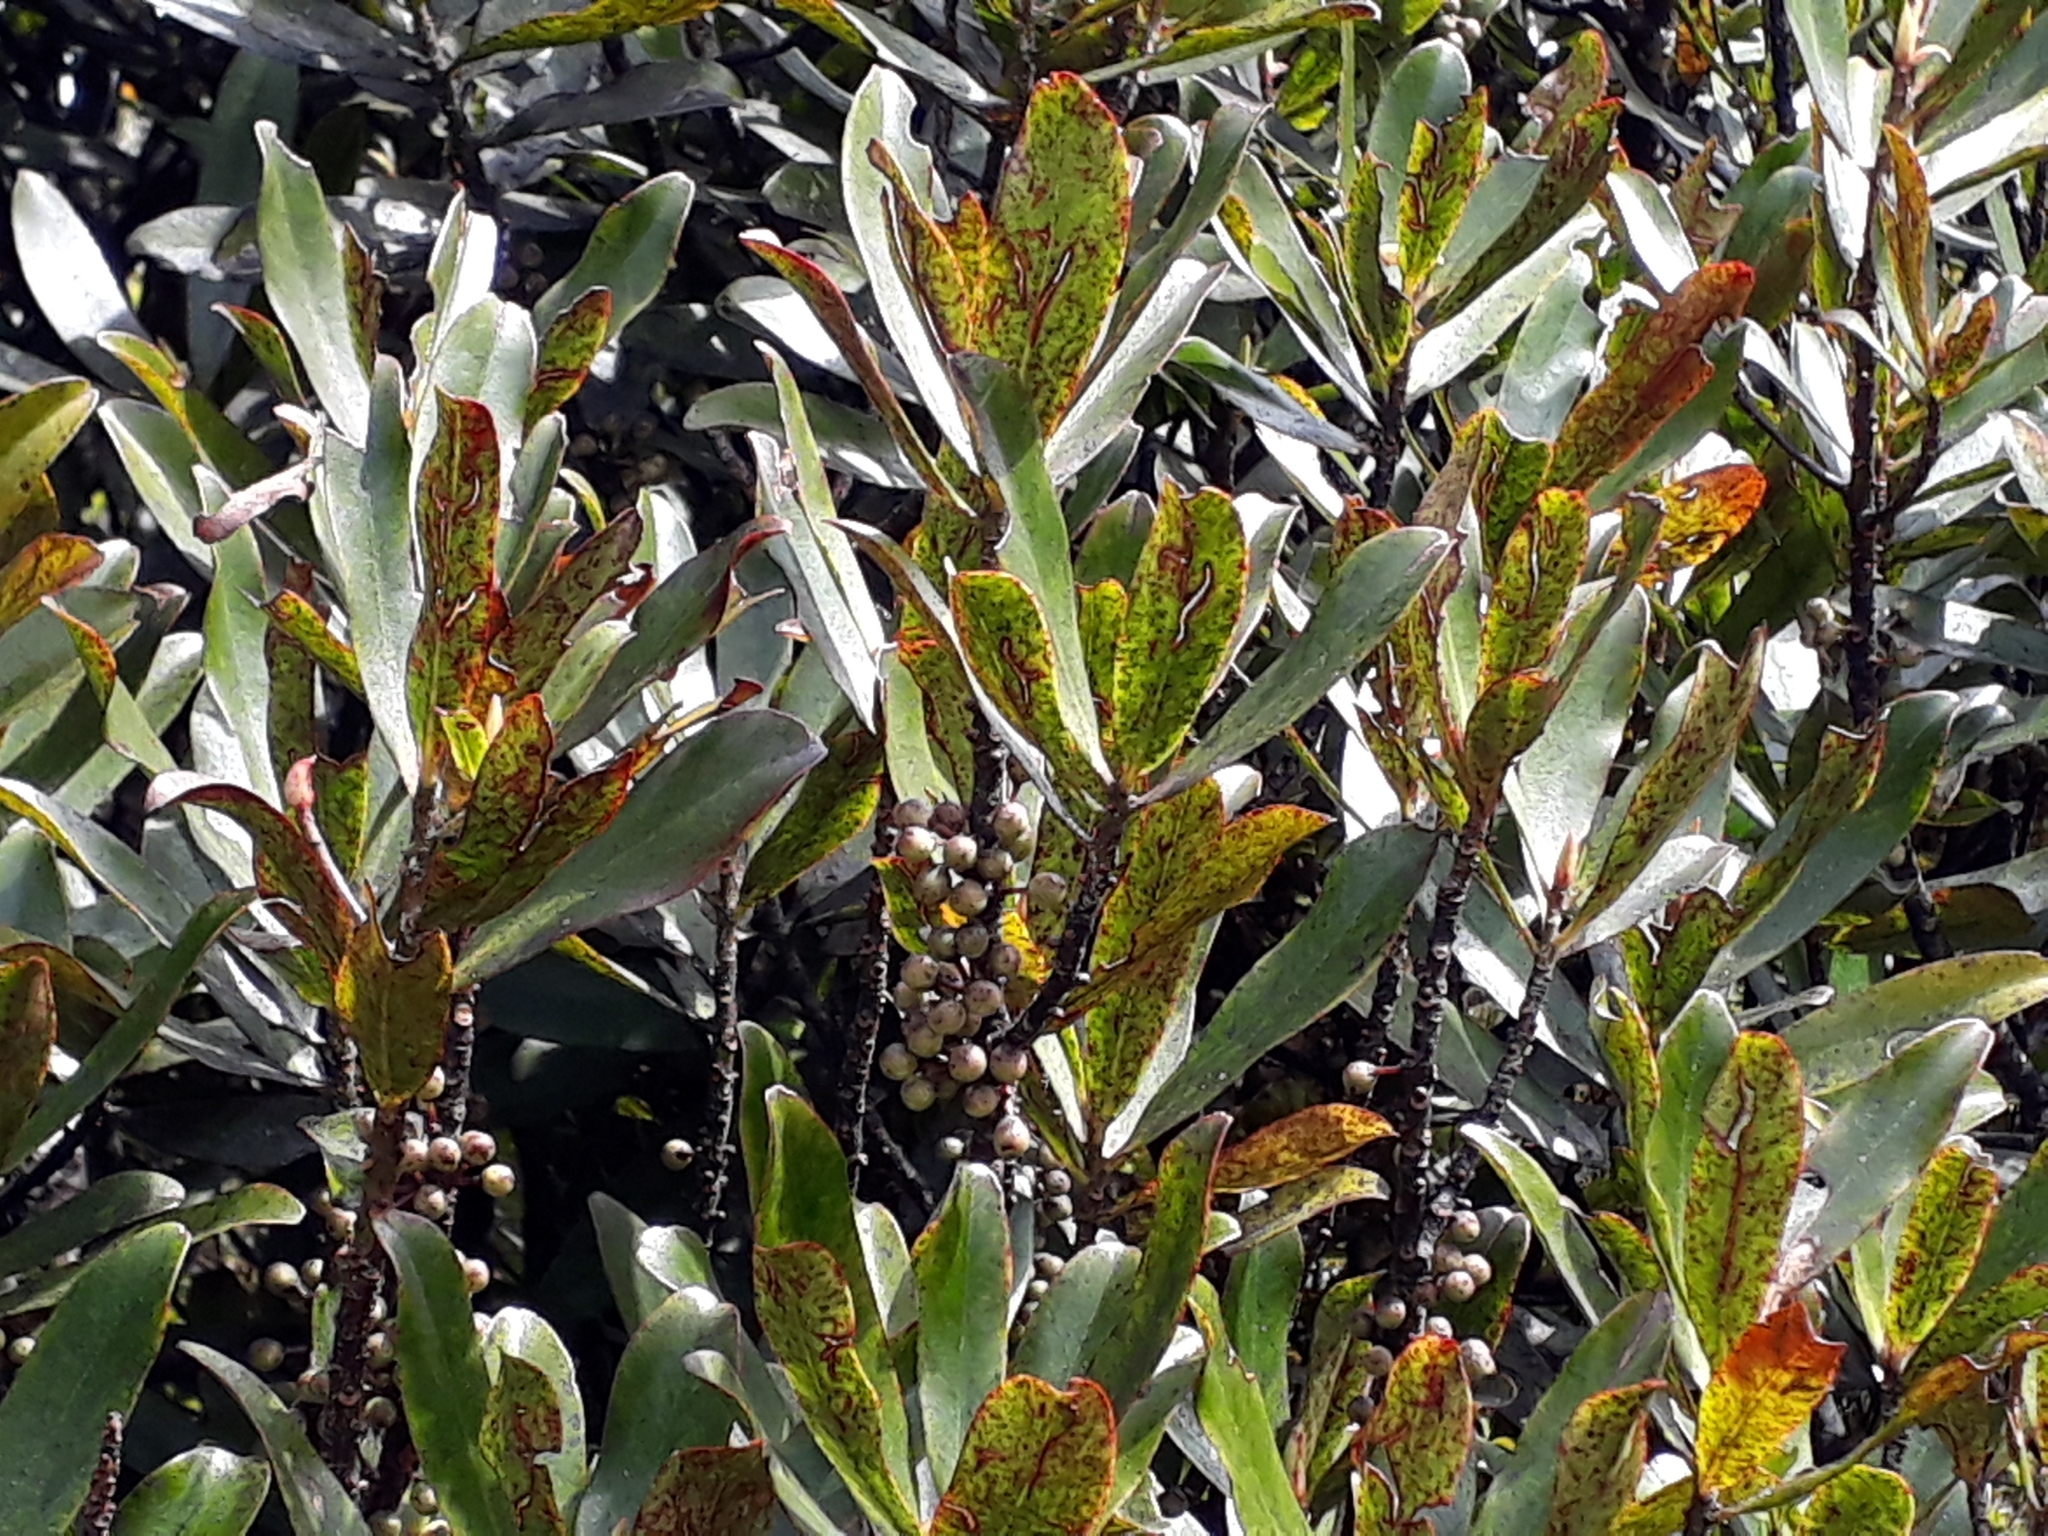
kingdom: Plantae
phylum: Tracheophyta
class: Magnoliopsida
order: Ericales
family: Primulaceae
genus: Myrsine
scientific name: Myrsine salicina
